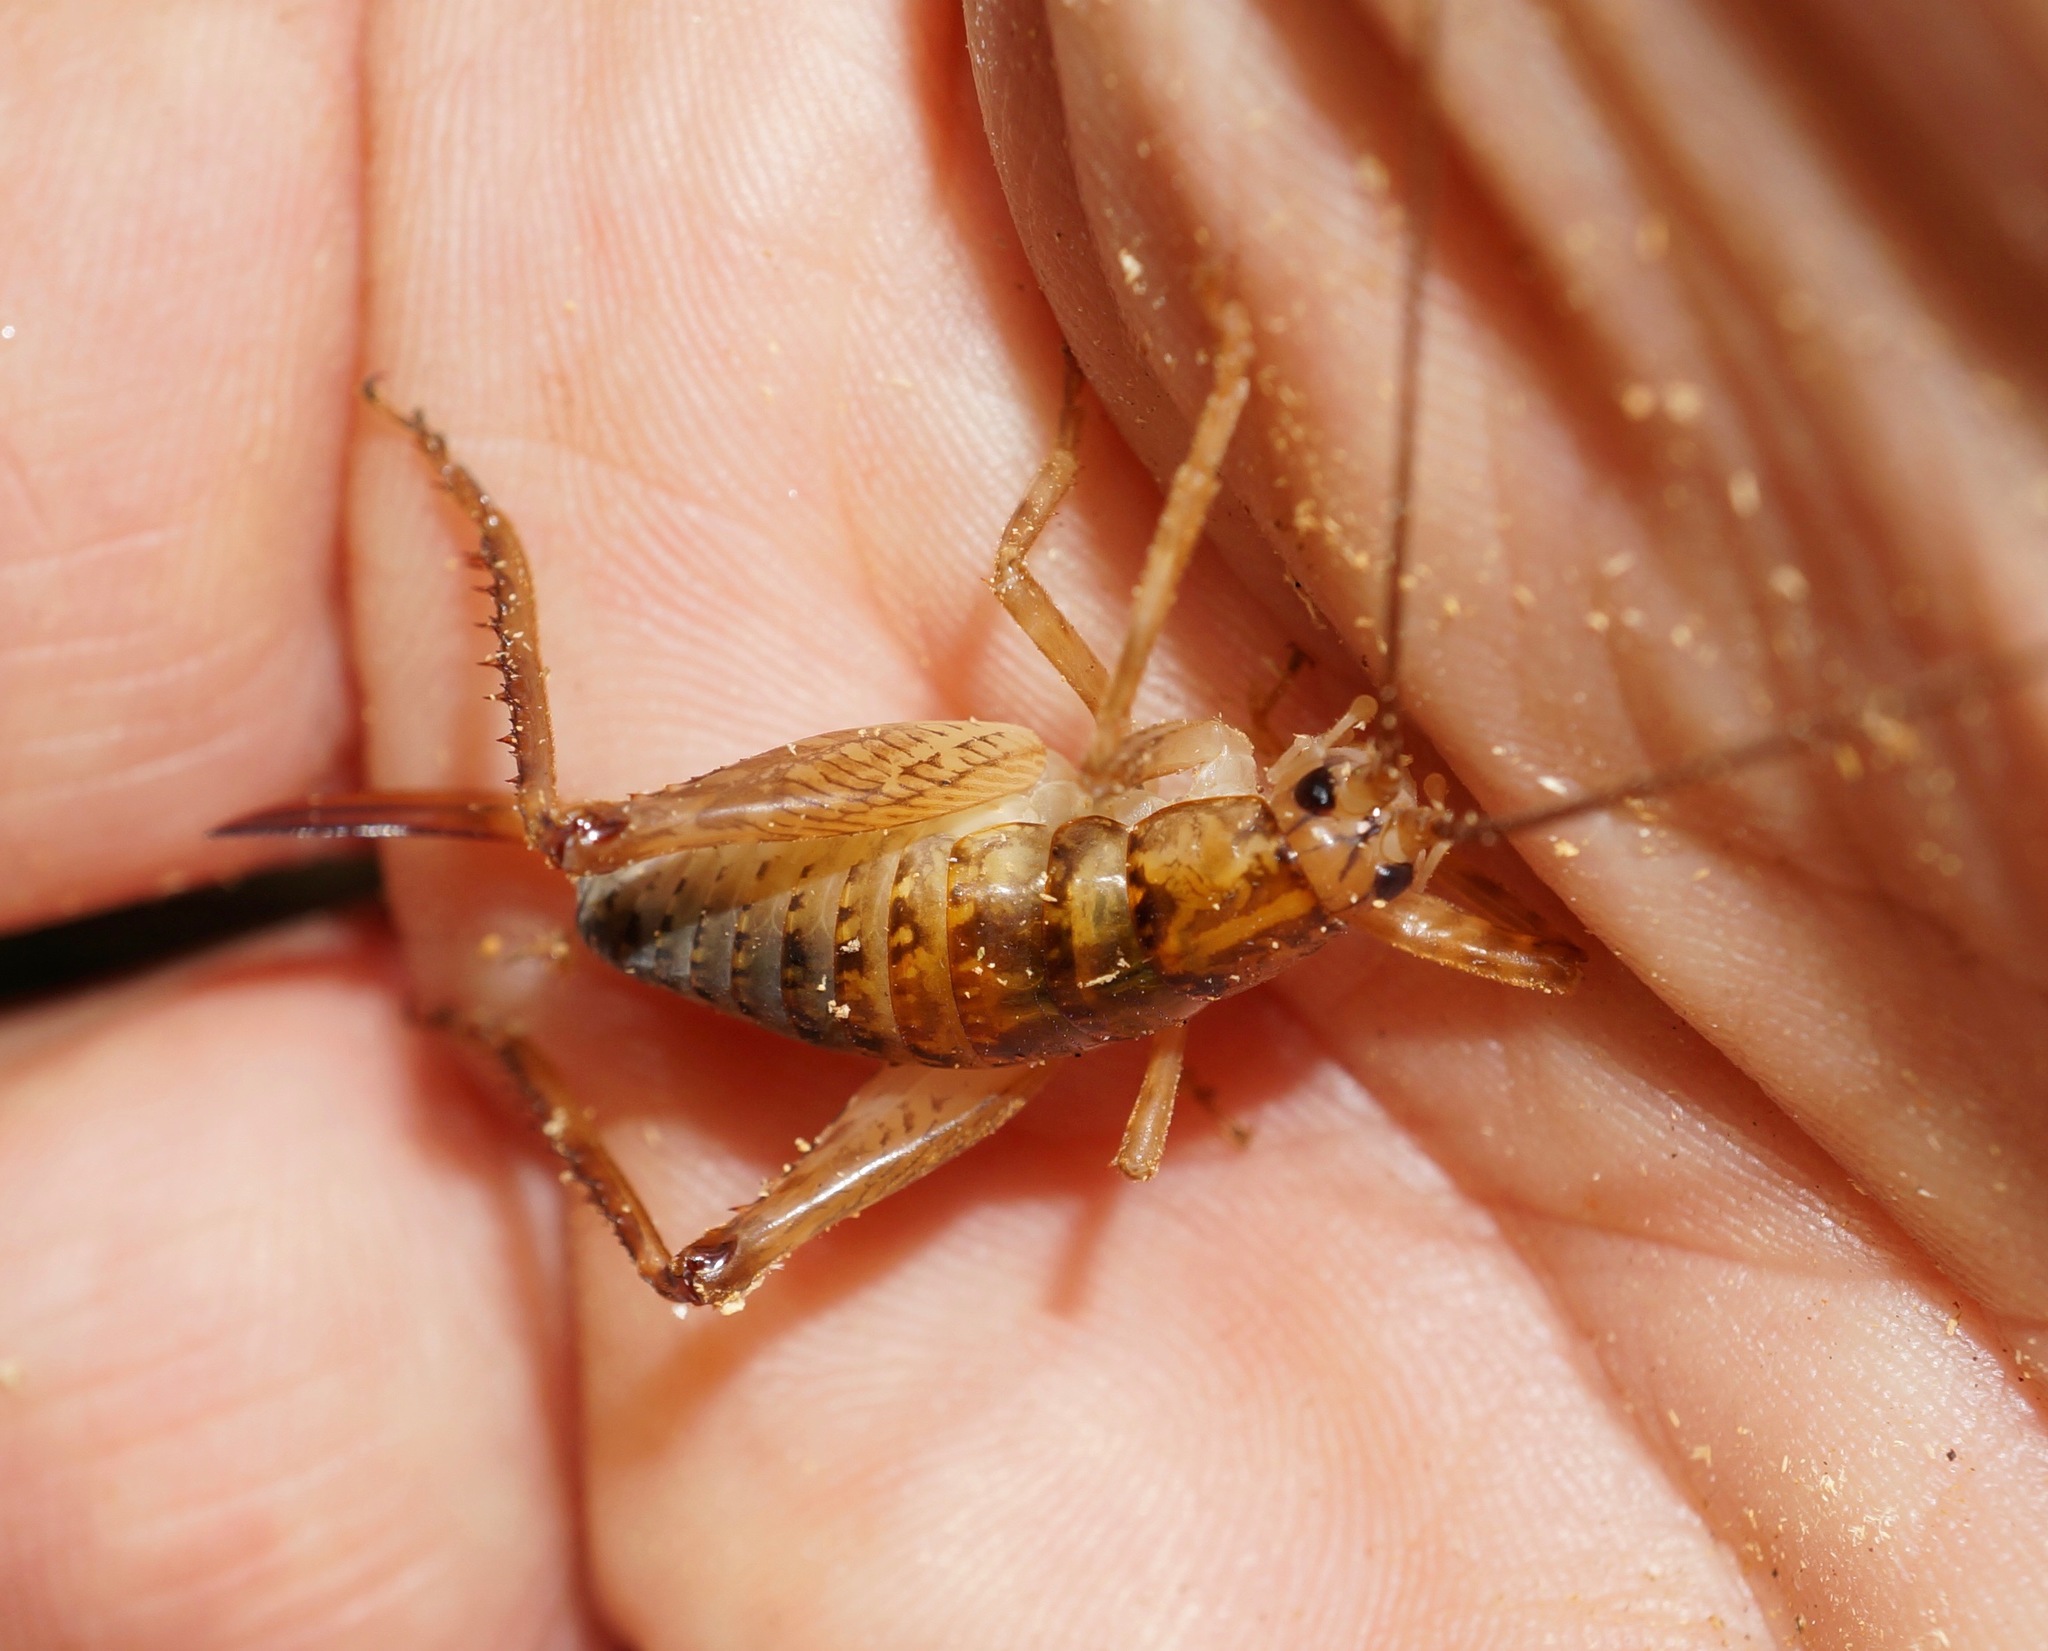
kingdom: Animalia
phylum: Arthropoda
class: Insecta
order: Orthoptera
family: Rhaphidophoridae
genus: Talitropsis
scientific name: Talitropsis sedilloti
